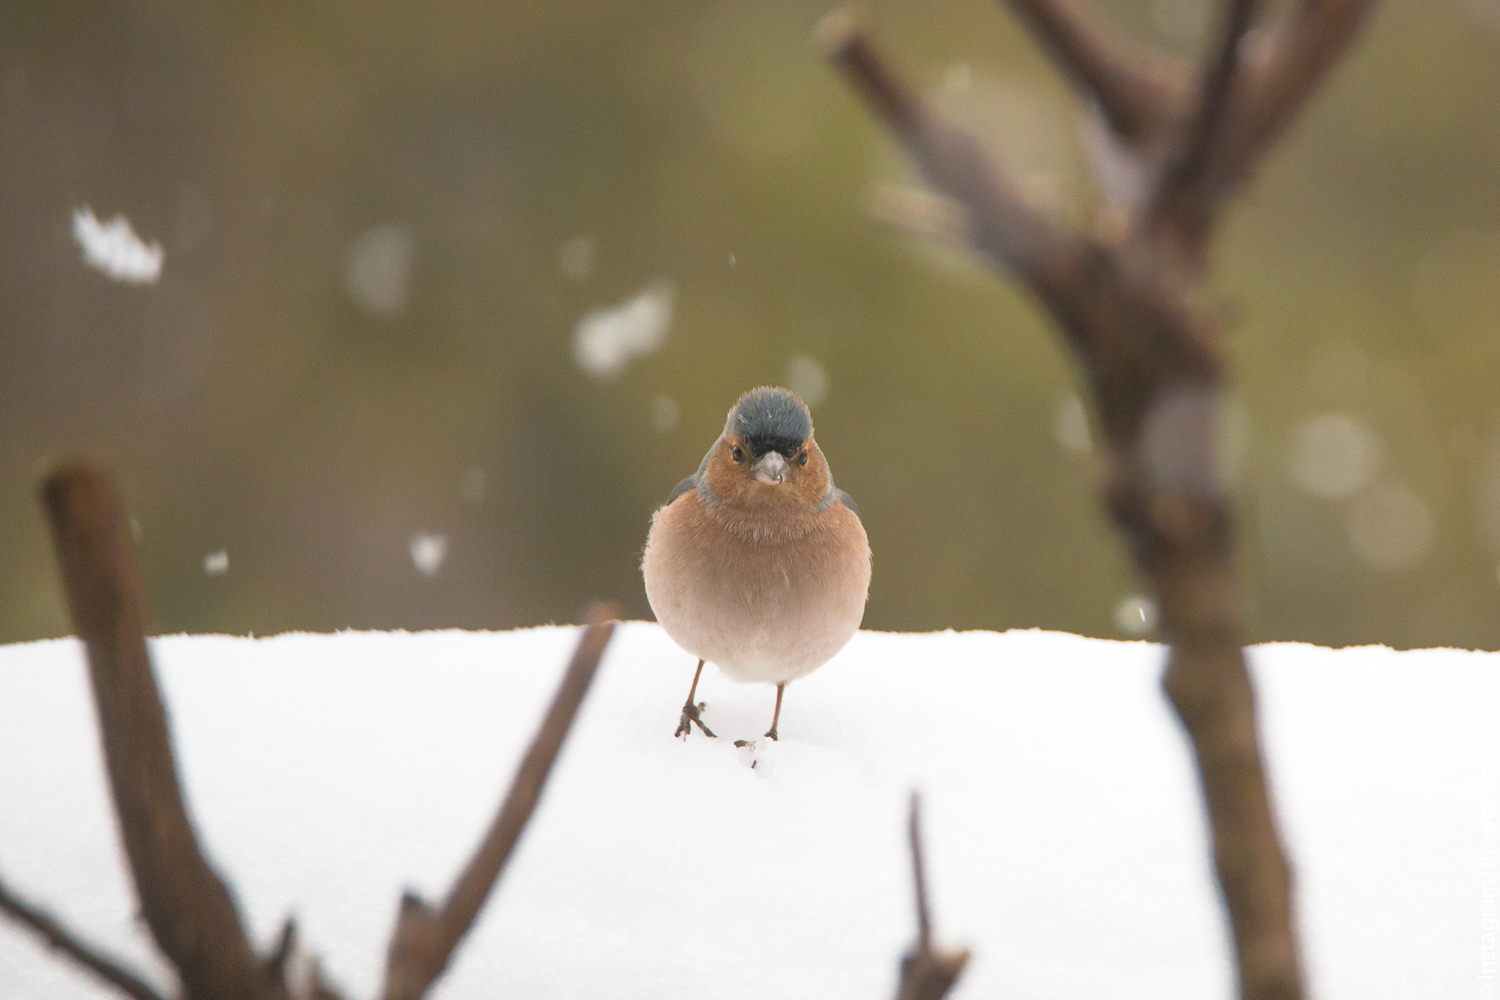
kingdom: Animalia
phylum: Chordata
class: Aves
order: Passeriformes
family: Fringillidae
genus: Fringilla
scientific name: Fringilla coelebs
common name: Common chaffinch
